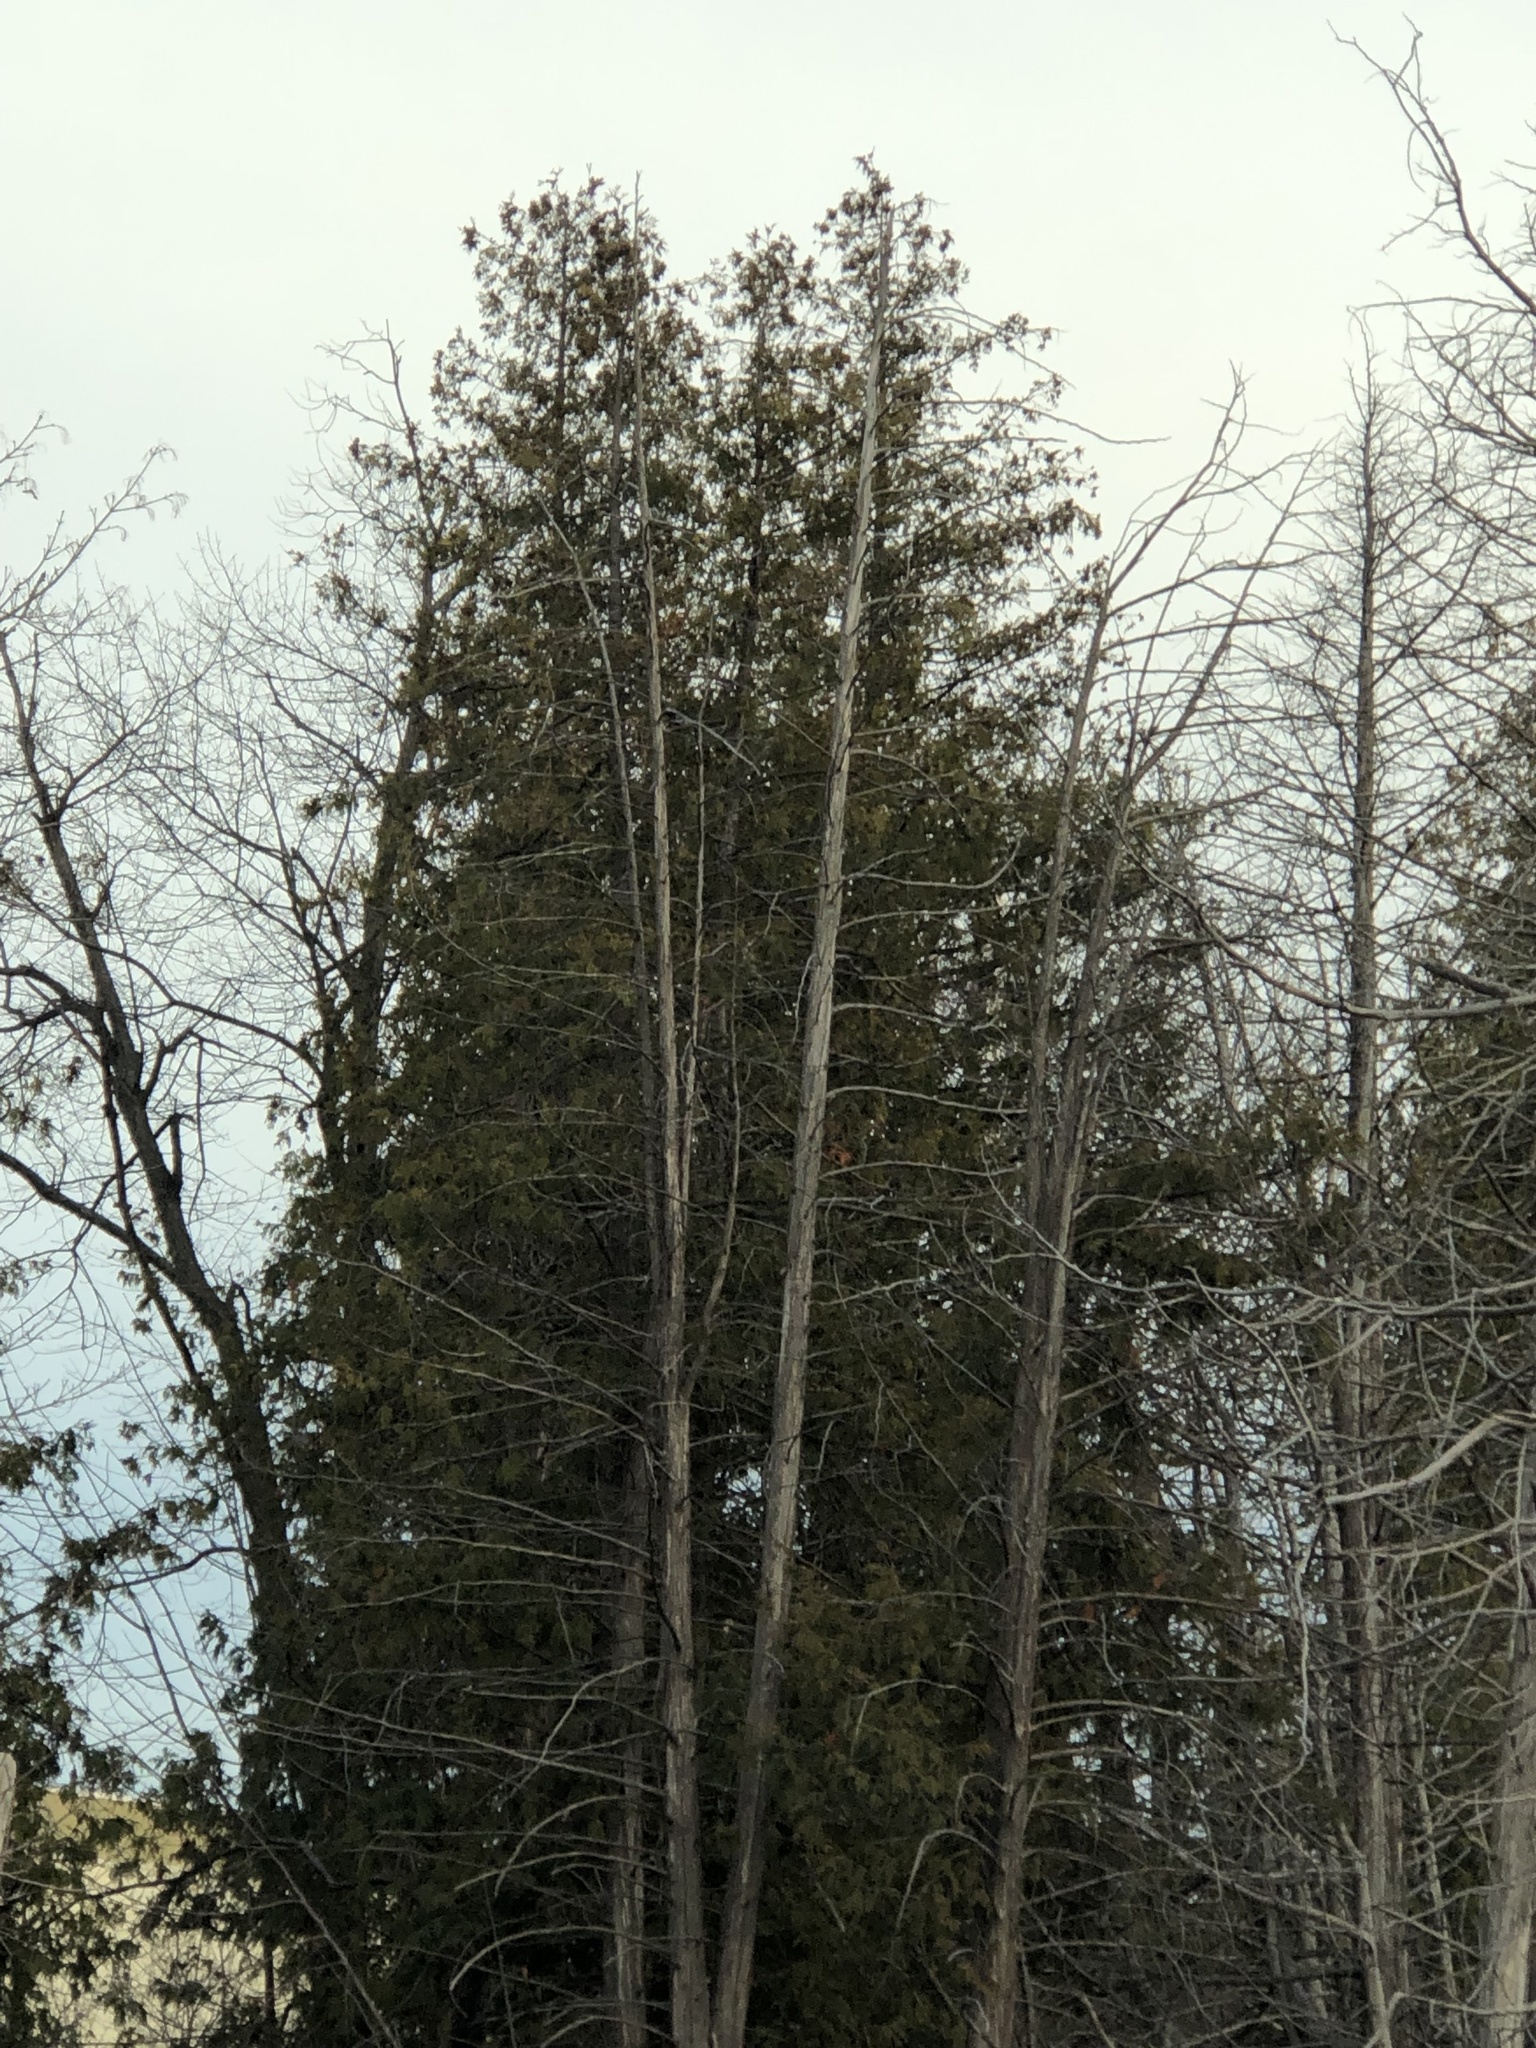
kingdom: Plantae
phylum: Tracheophyta
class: Pinopsida
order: Pinales
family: Cupressaceae
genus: Thuja
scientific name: Thuja occidentalis
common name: Northern white-cedar
